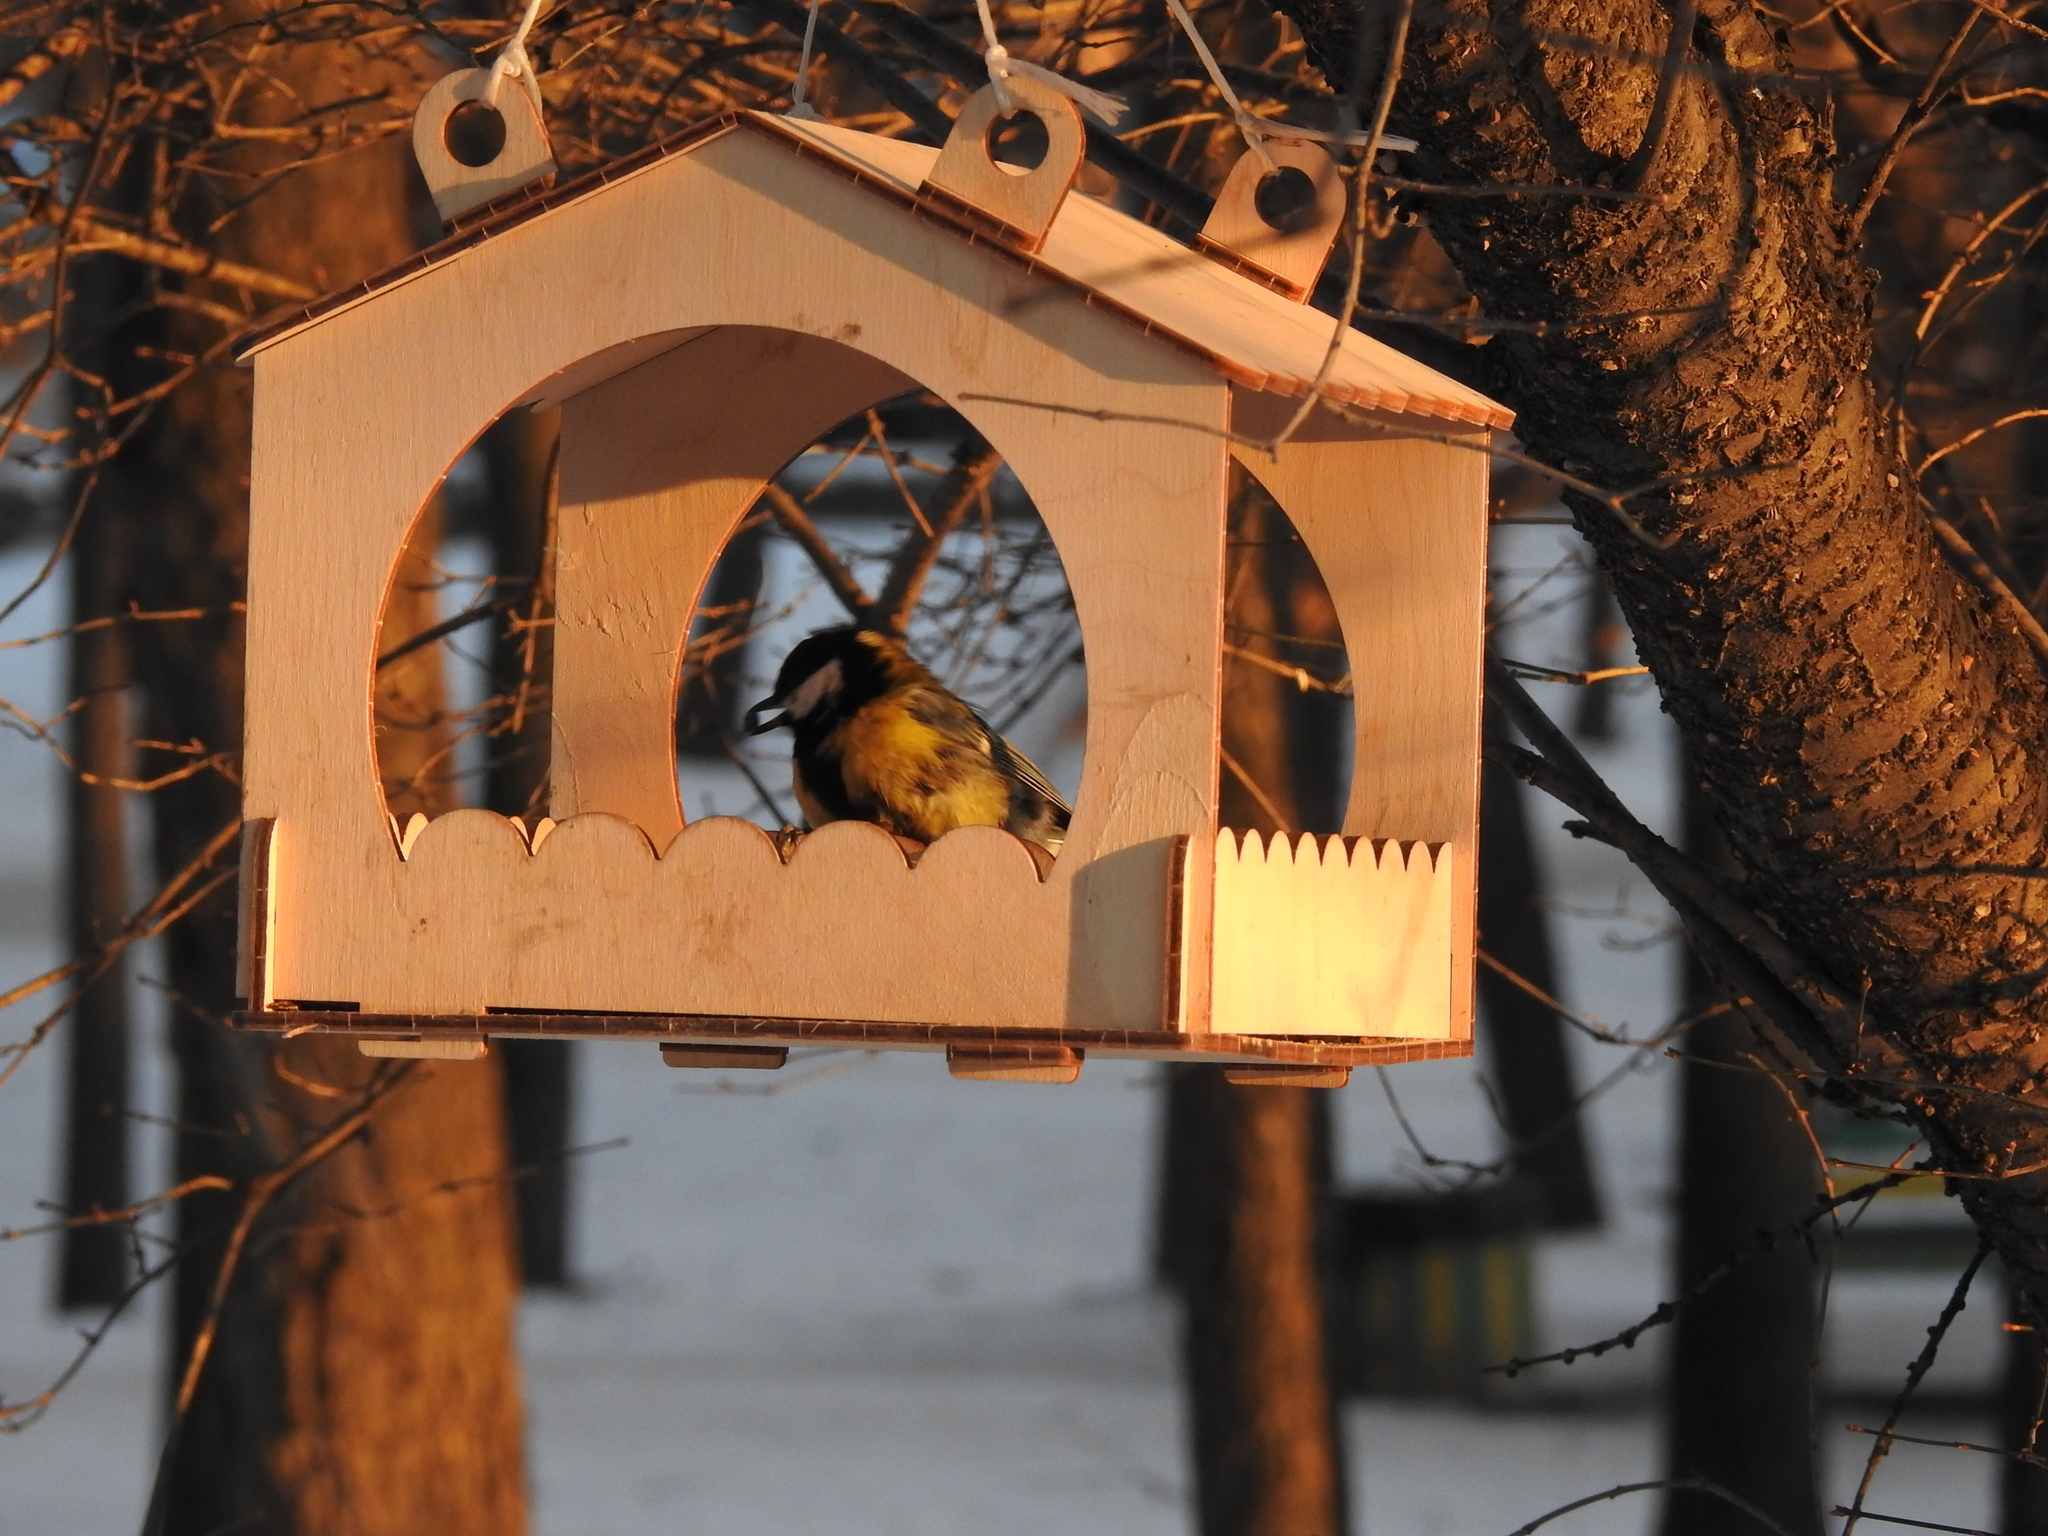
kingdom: Animalia
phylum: Chordata
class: Aves
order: Passeriformes
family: Paridae
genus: Parus
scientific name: Parus major
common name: Great tit
